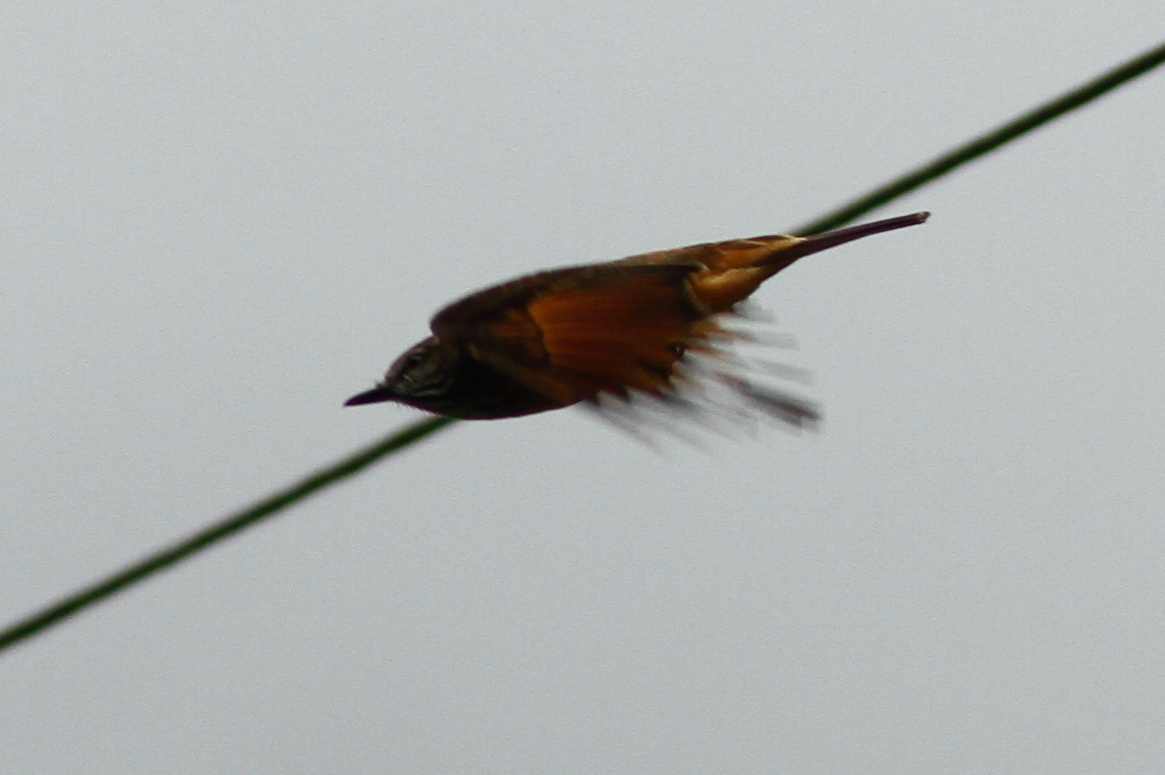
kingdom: Animalia
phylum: Chordata
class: Aves
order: Passeriformes
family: Tyrannidae
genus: Myiotheretes
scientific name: Myiotheretes striaticollis
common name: Streak-throated bush tyrant
